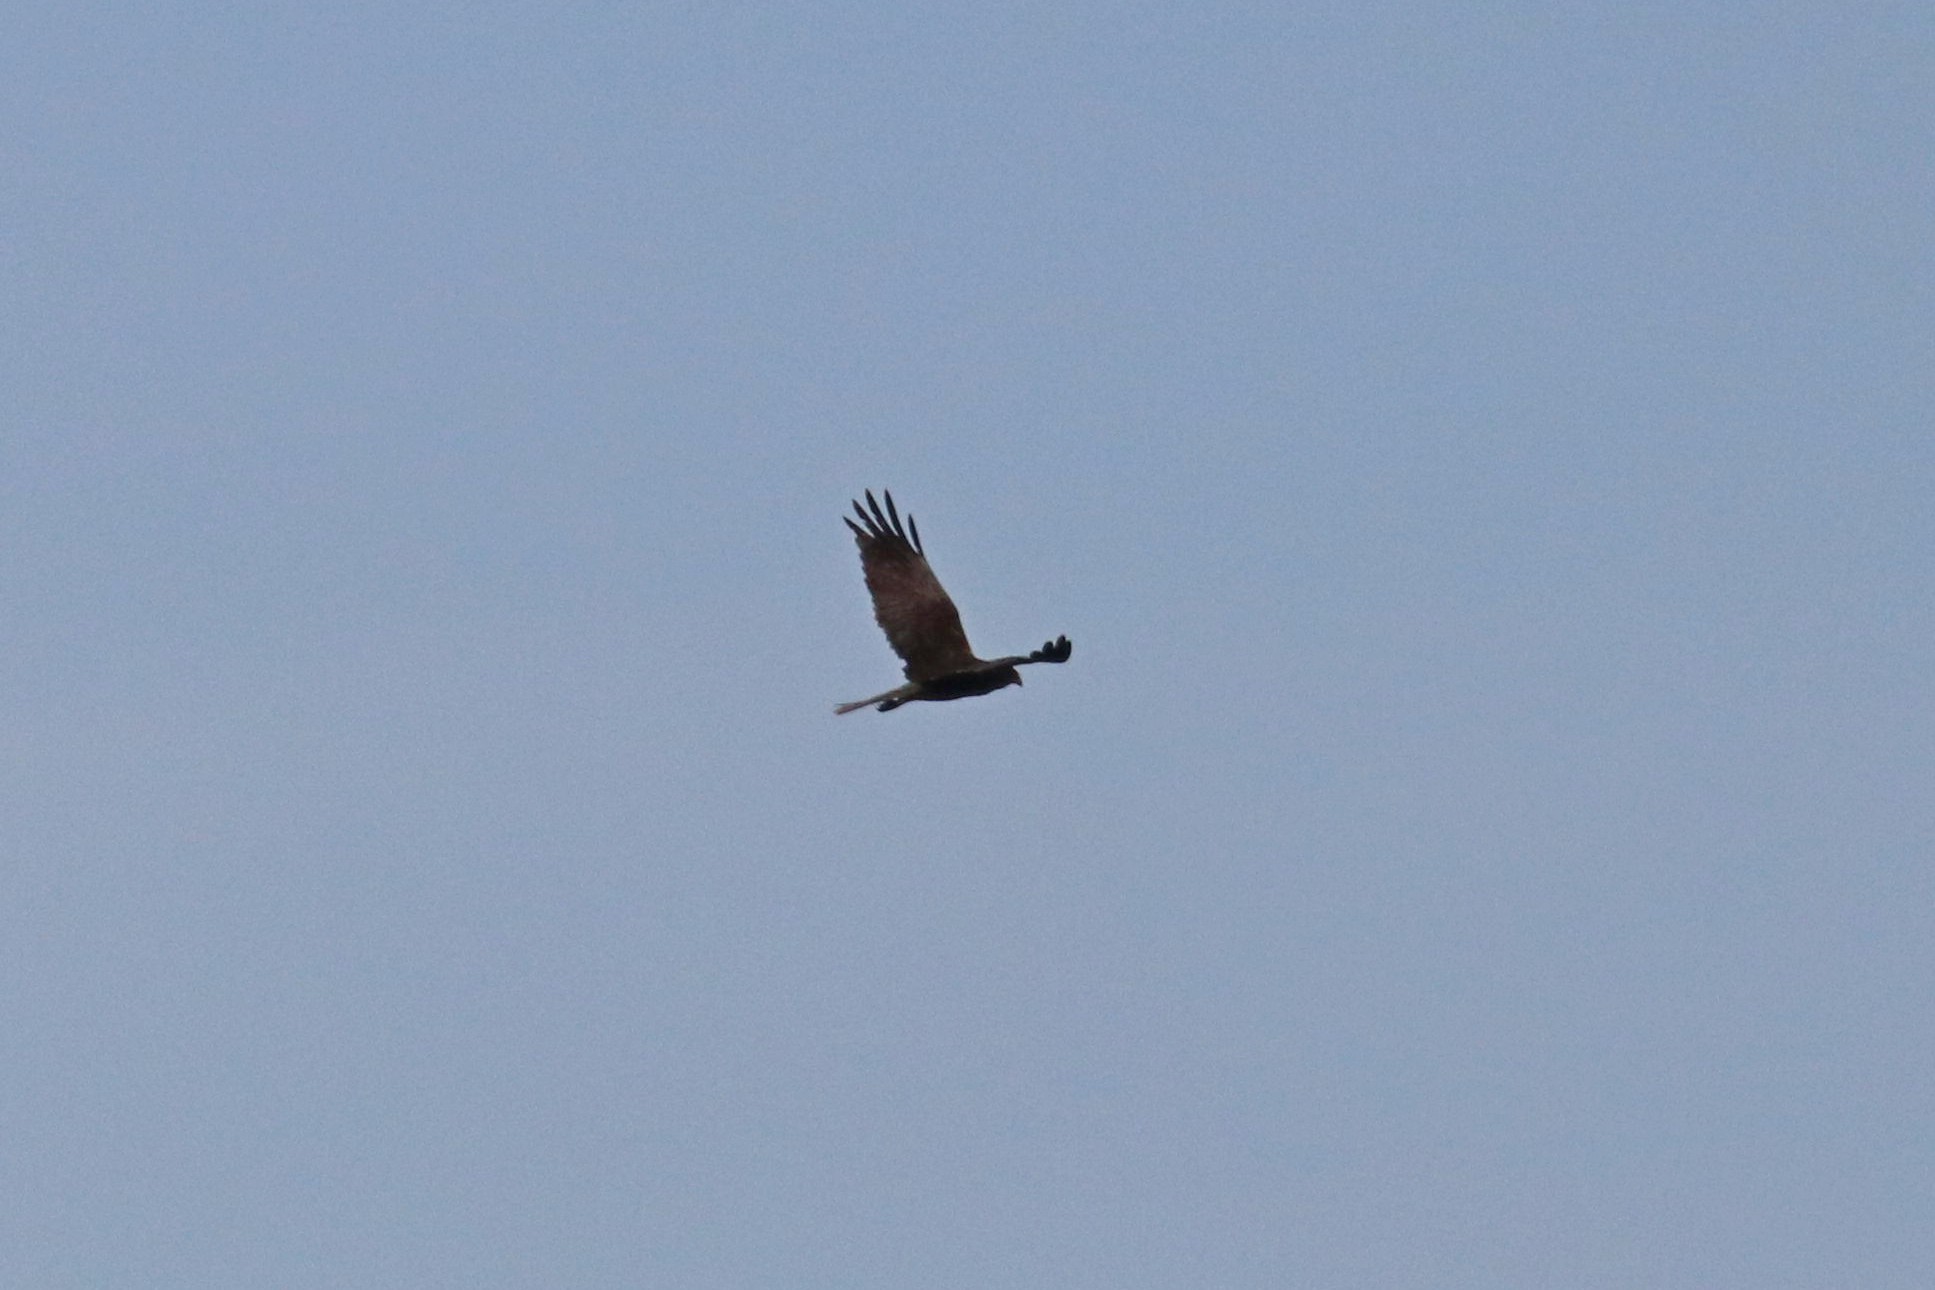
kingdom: Animalia
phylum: Chordata
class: Aves
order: Accipitriformes
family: Accipitridae
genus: Circus
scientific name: Circus aeruginosus
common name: Western marsh harrier
